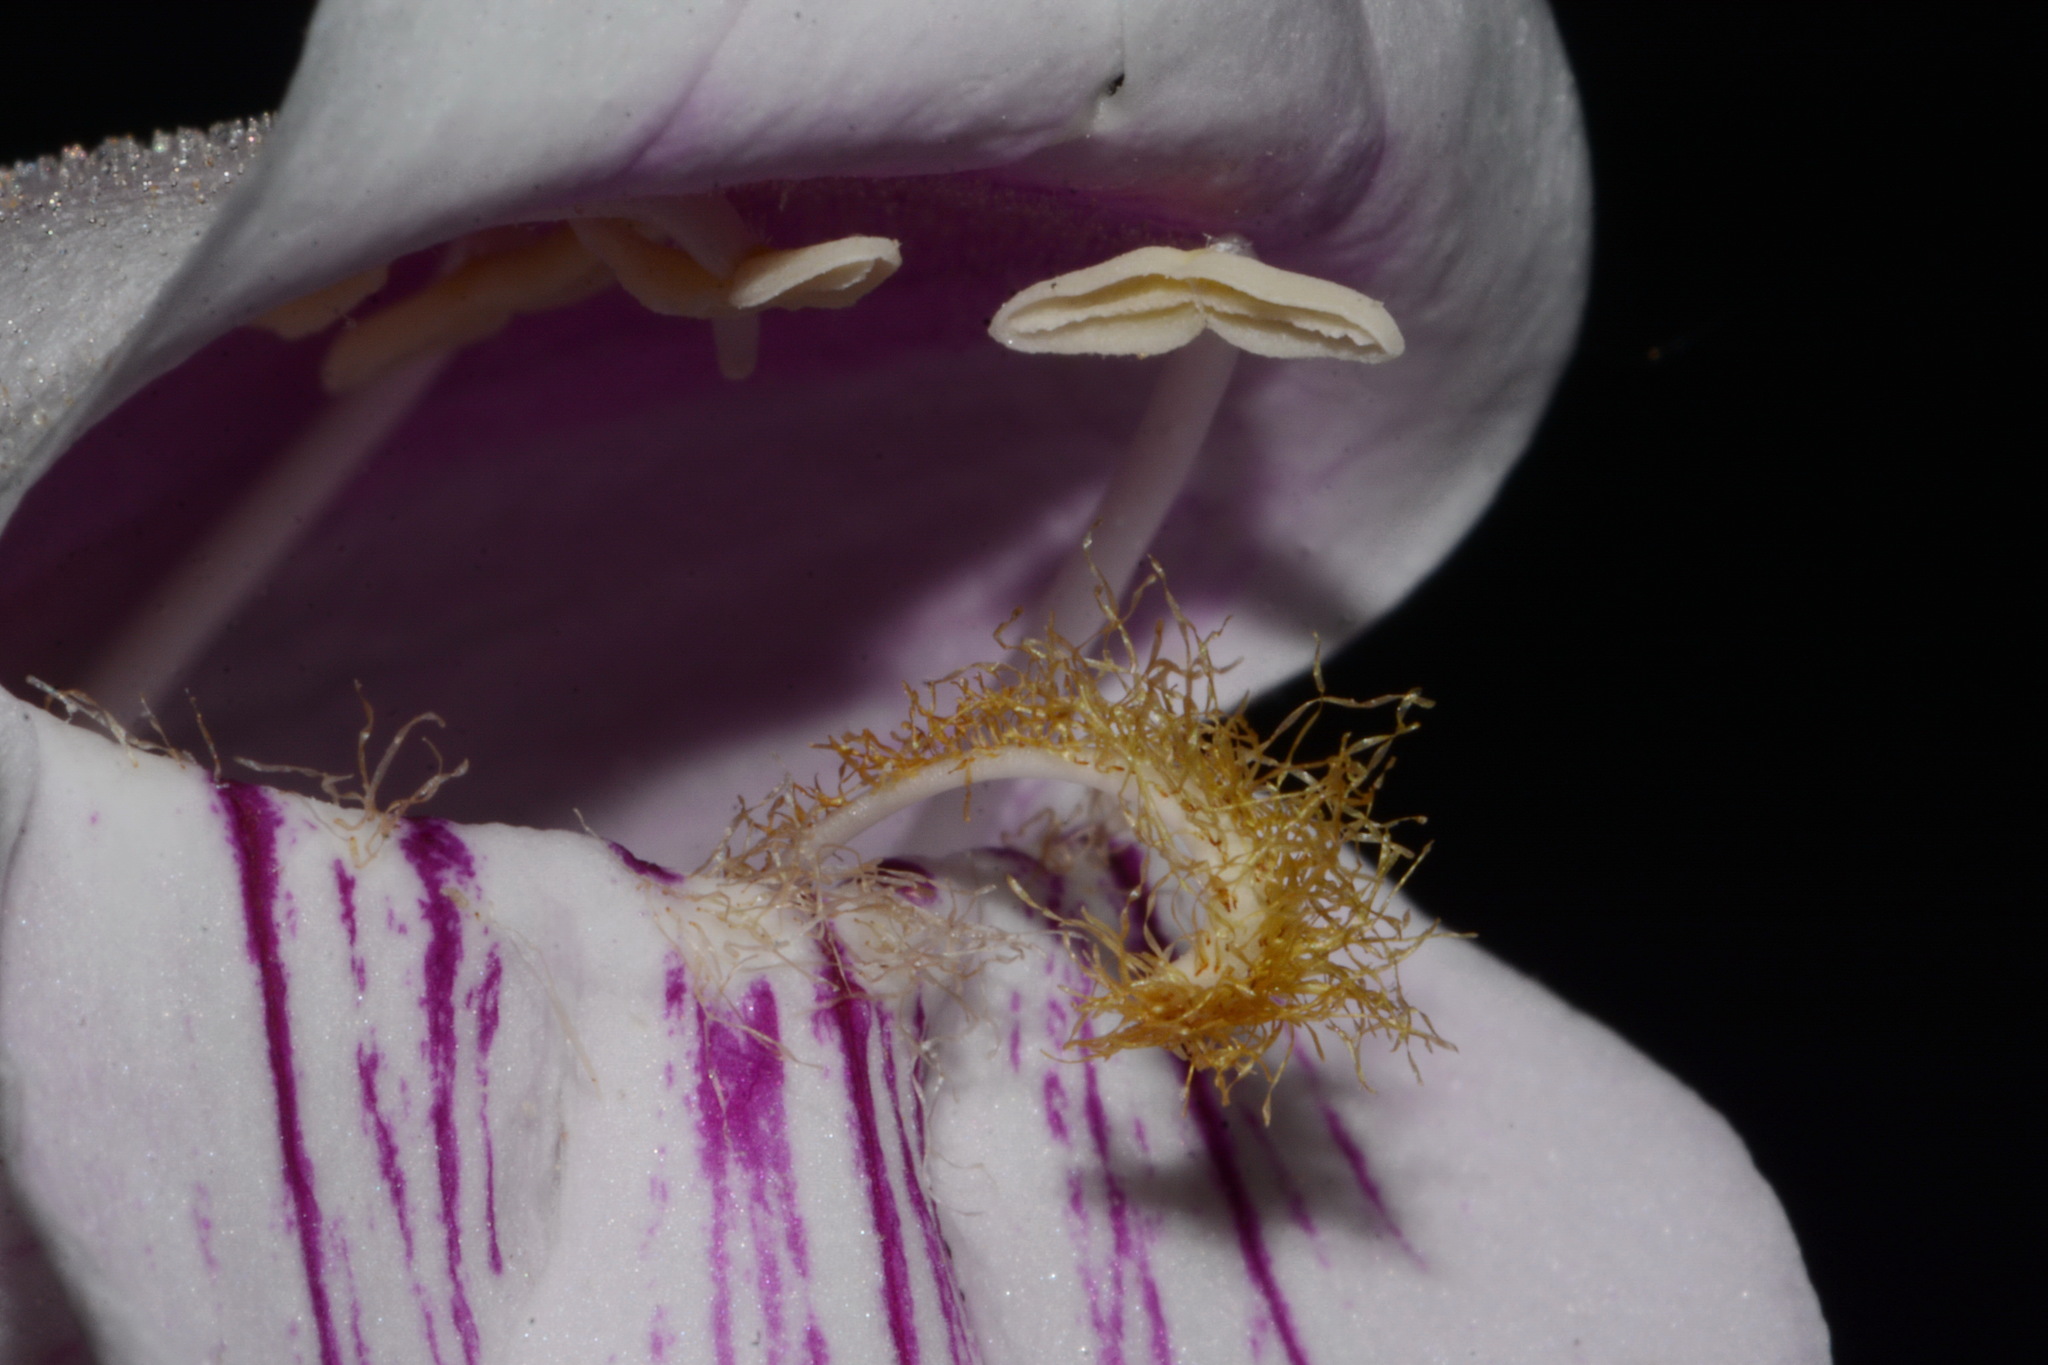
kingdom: Plantae
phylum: Tracheophyta
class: Magnoliopsida
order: Lamiales
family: Plantaginaceae
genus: Penstemon
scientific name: Penstemon palmeri
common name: Palmer penstemon
